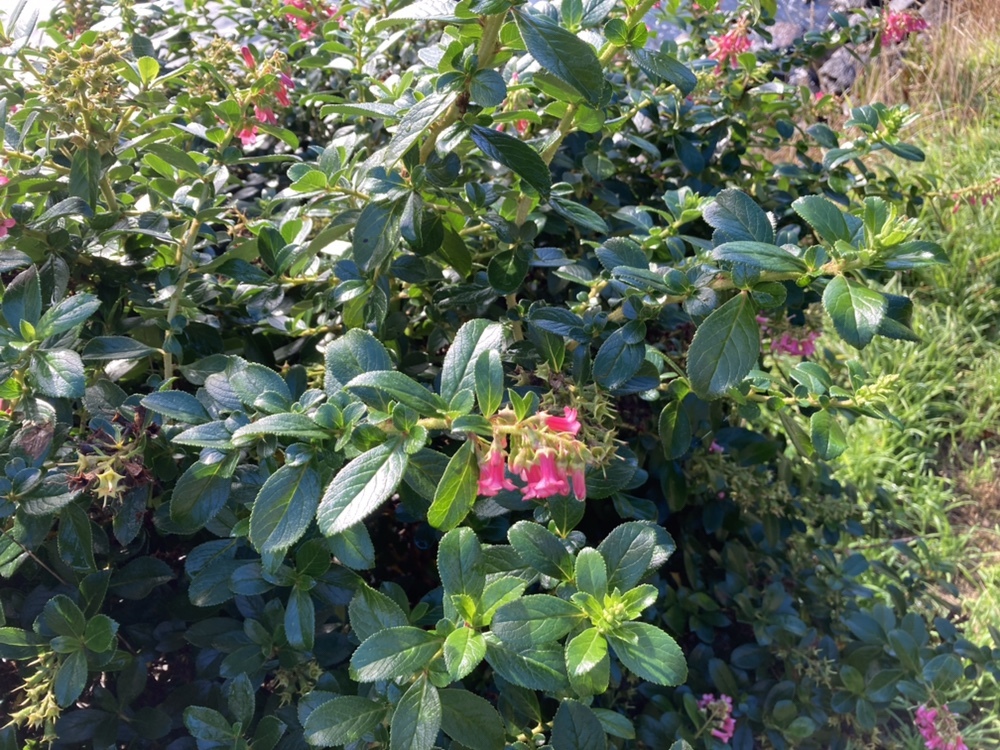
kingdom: Plantae
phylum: Tracheophyta
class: Magnoliopsida
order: Escalloniales
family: Escalloniaceae
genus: Escallonia
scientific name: Escallonia rubra
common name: Redclaws
